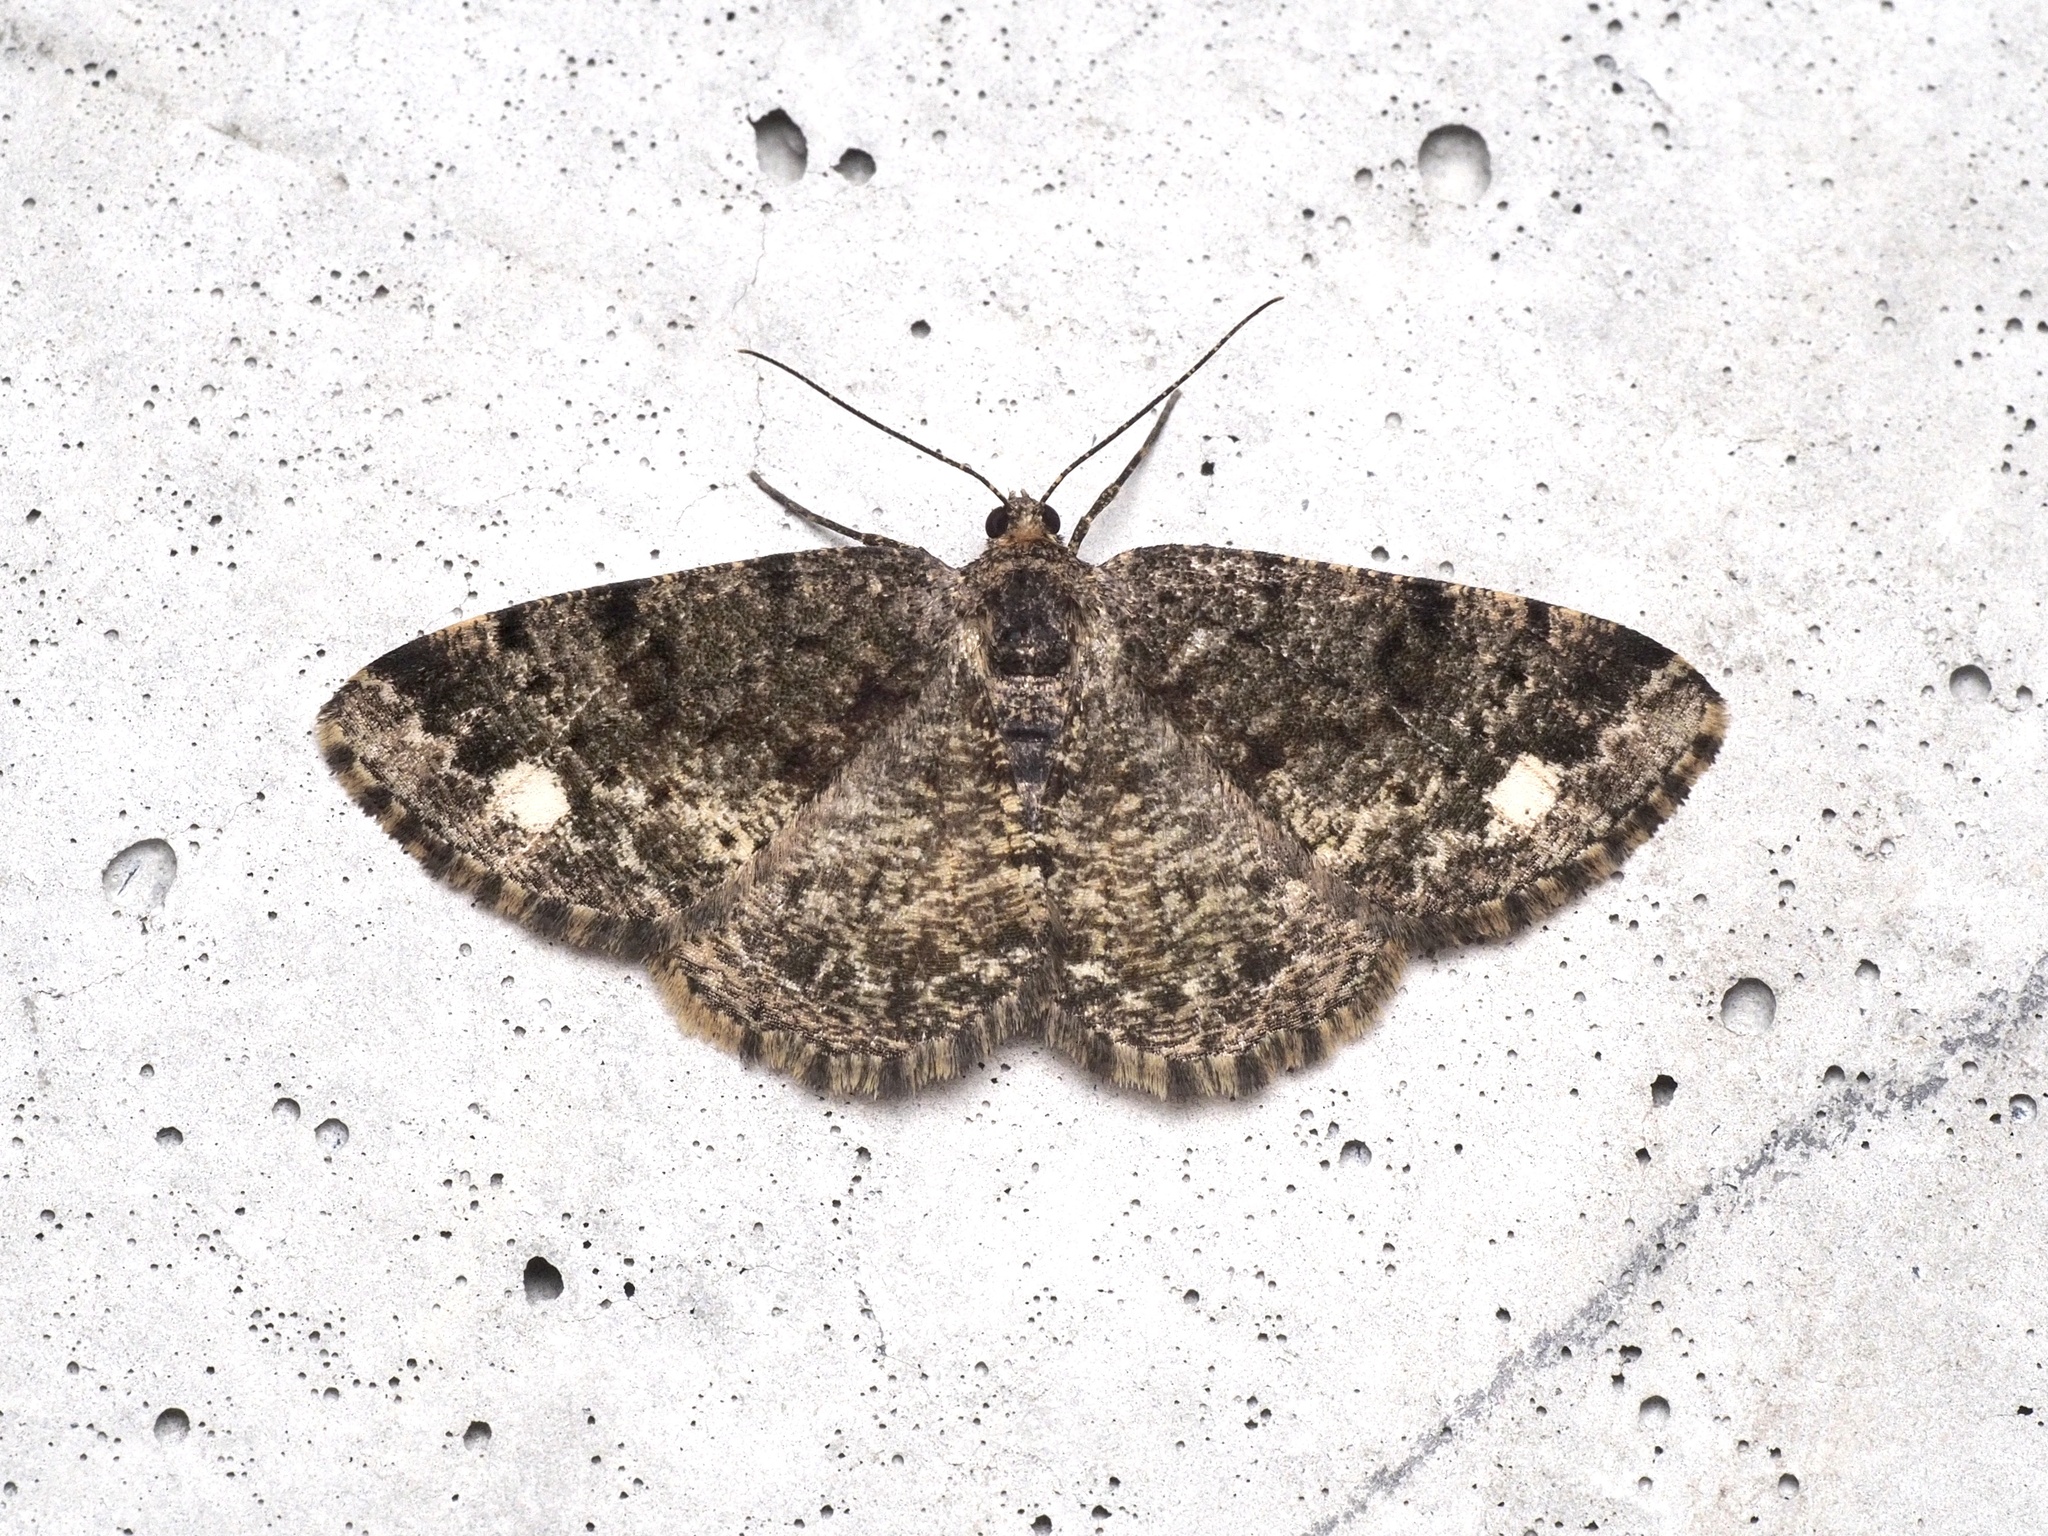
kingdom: Animalia
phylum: Arthropoda
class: Insecta
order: Lepidoptera
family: Geometridae
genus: Parectropis
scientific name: Parectropis similaria
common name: Brindled white-spot
